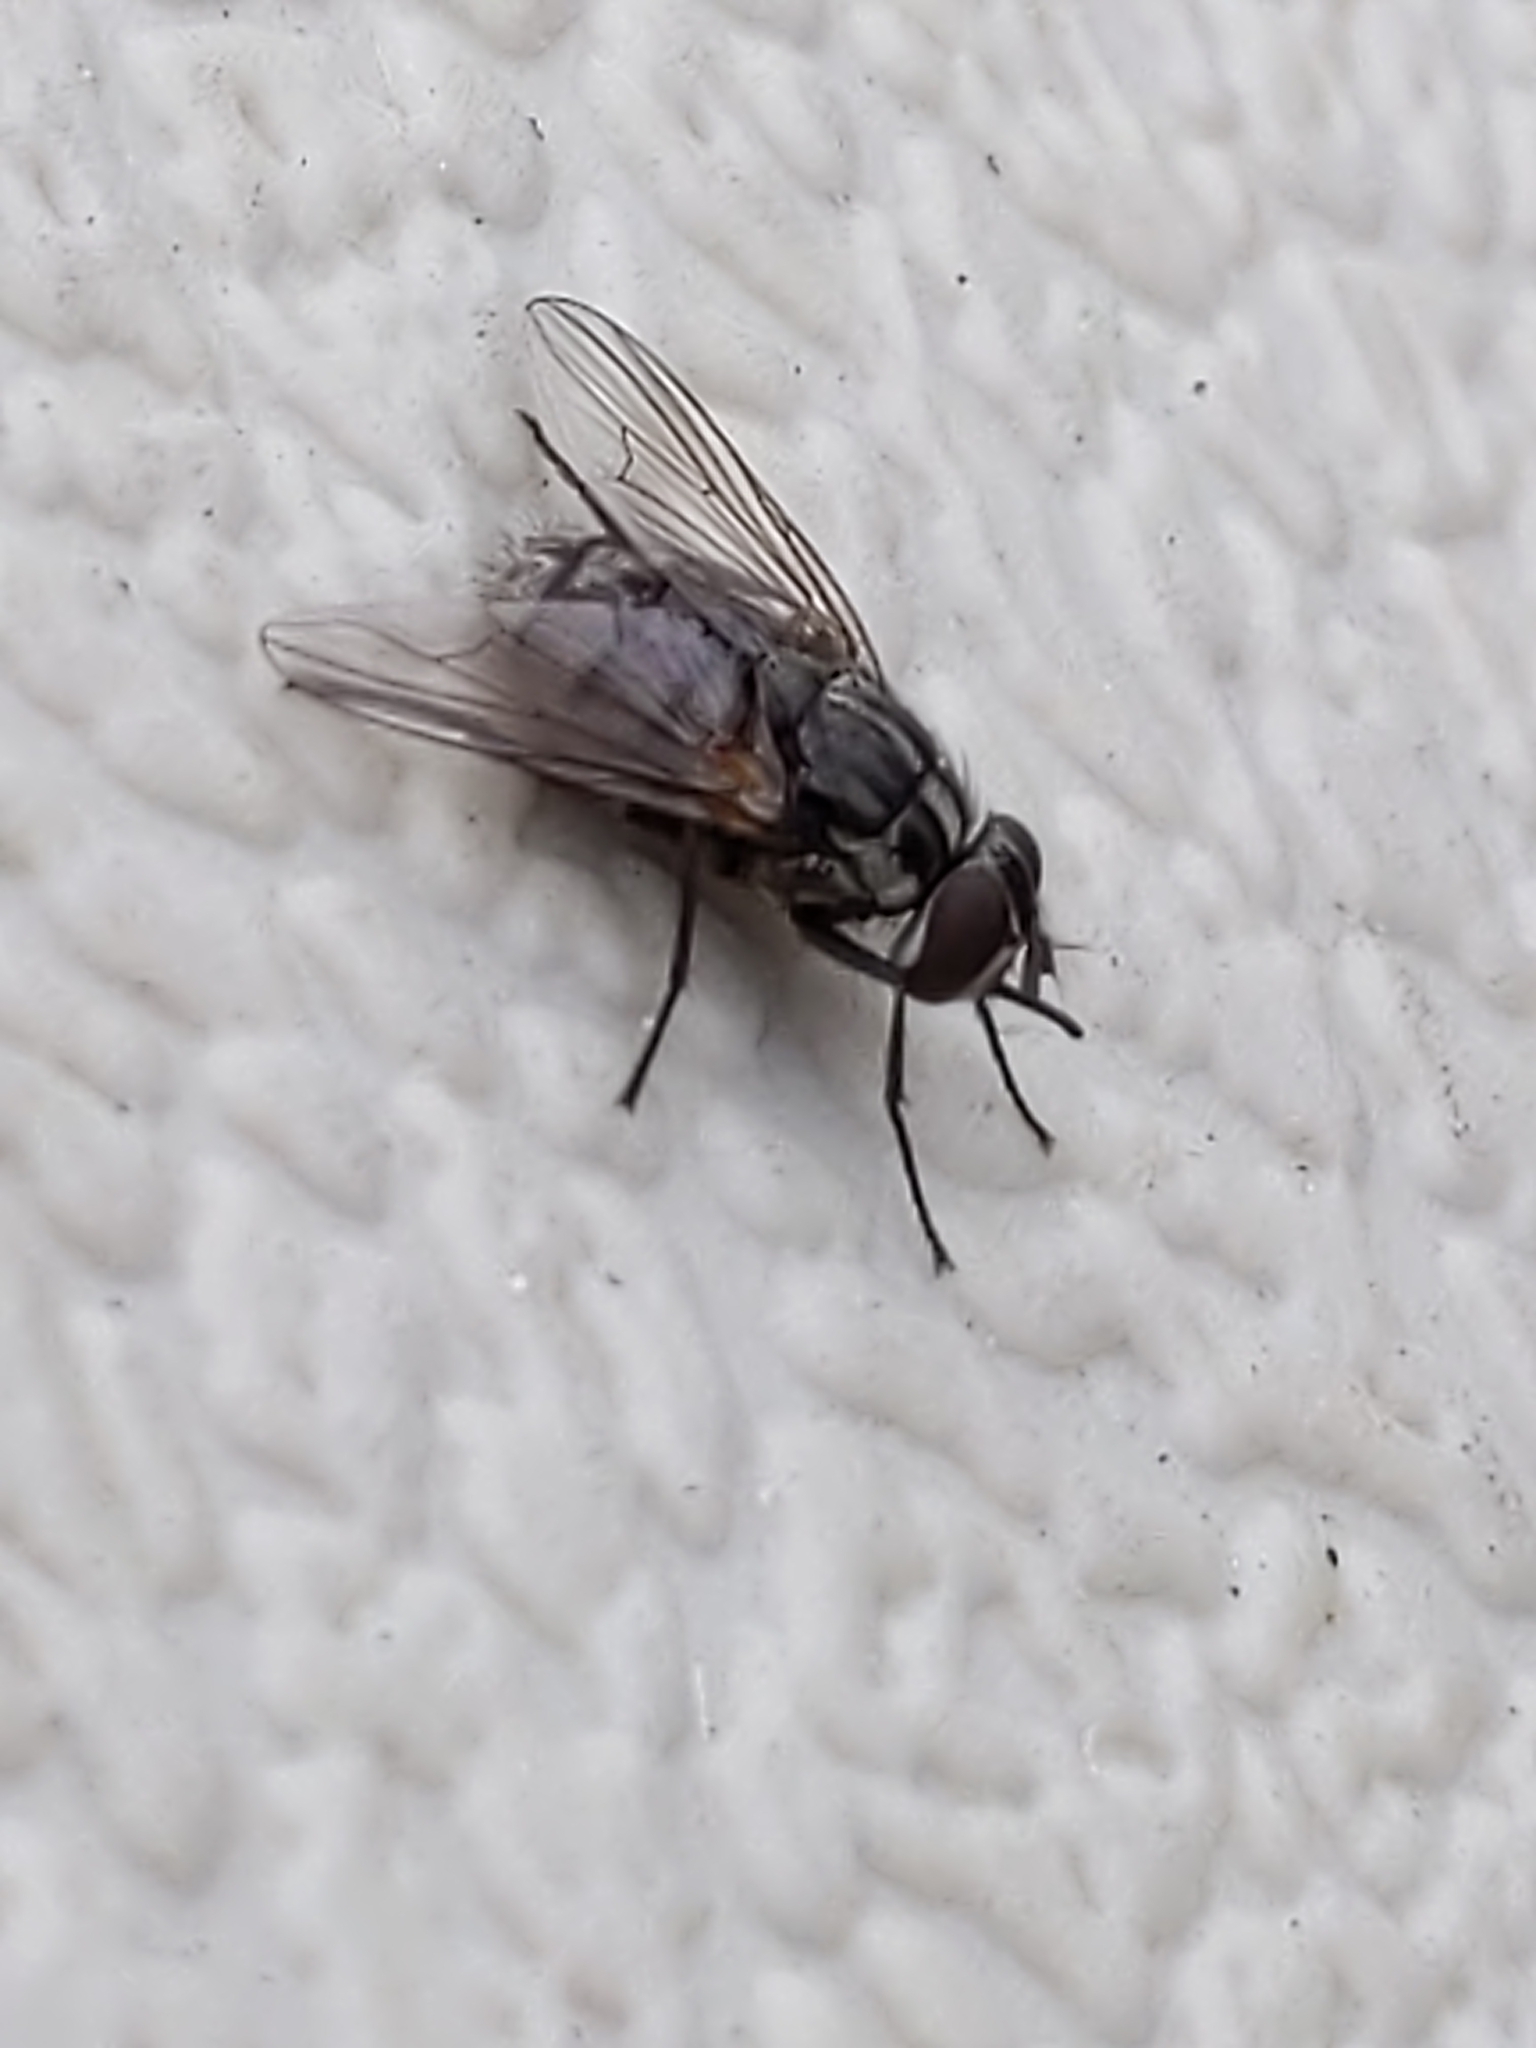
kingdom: Animalia
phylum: Arthropoda
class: Insecta
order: Diptera
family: Muscidae
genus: Stomoxys
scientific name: Stomoxys calcitrans
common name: Stable fly
